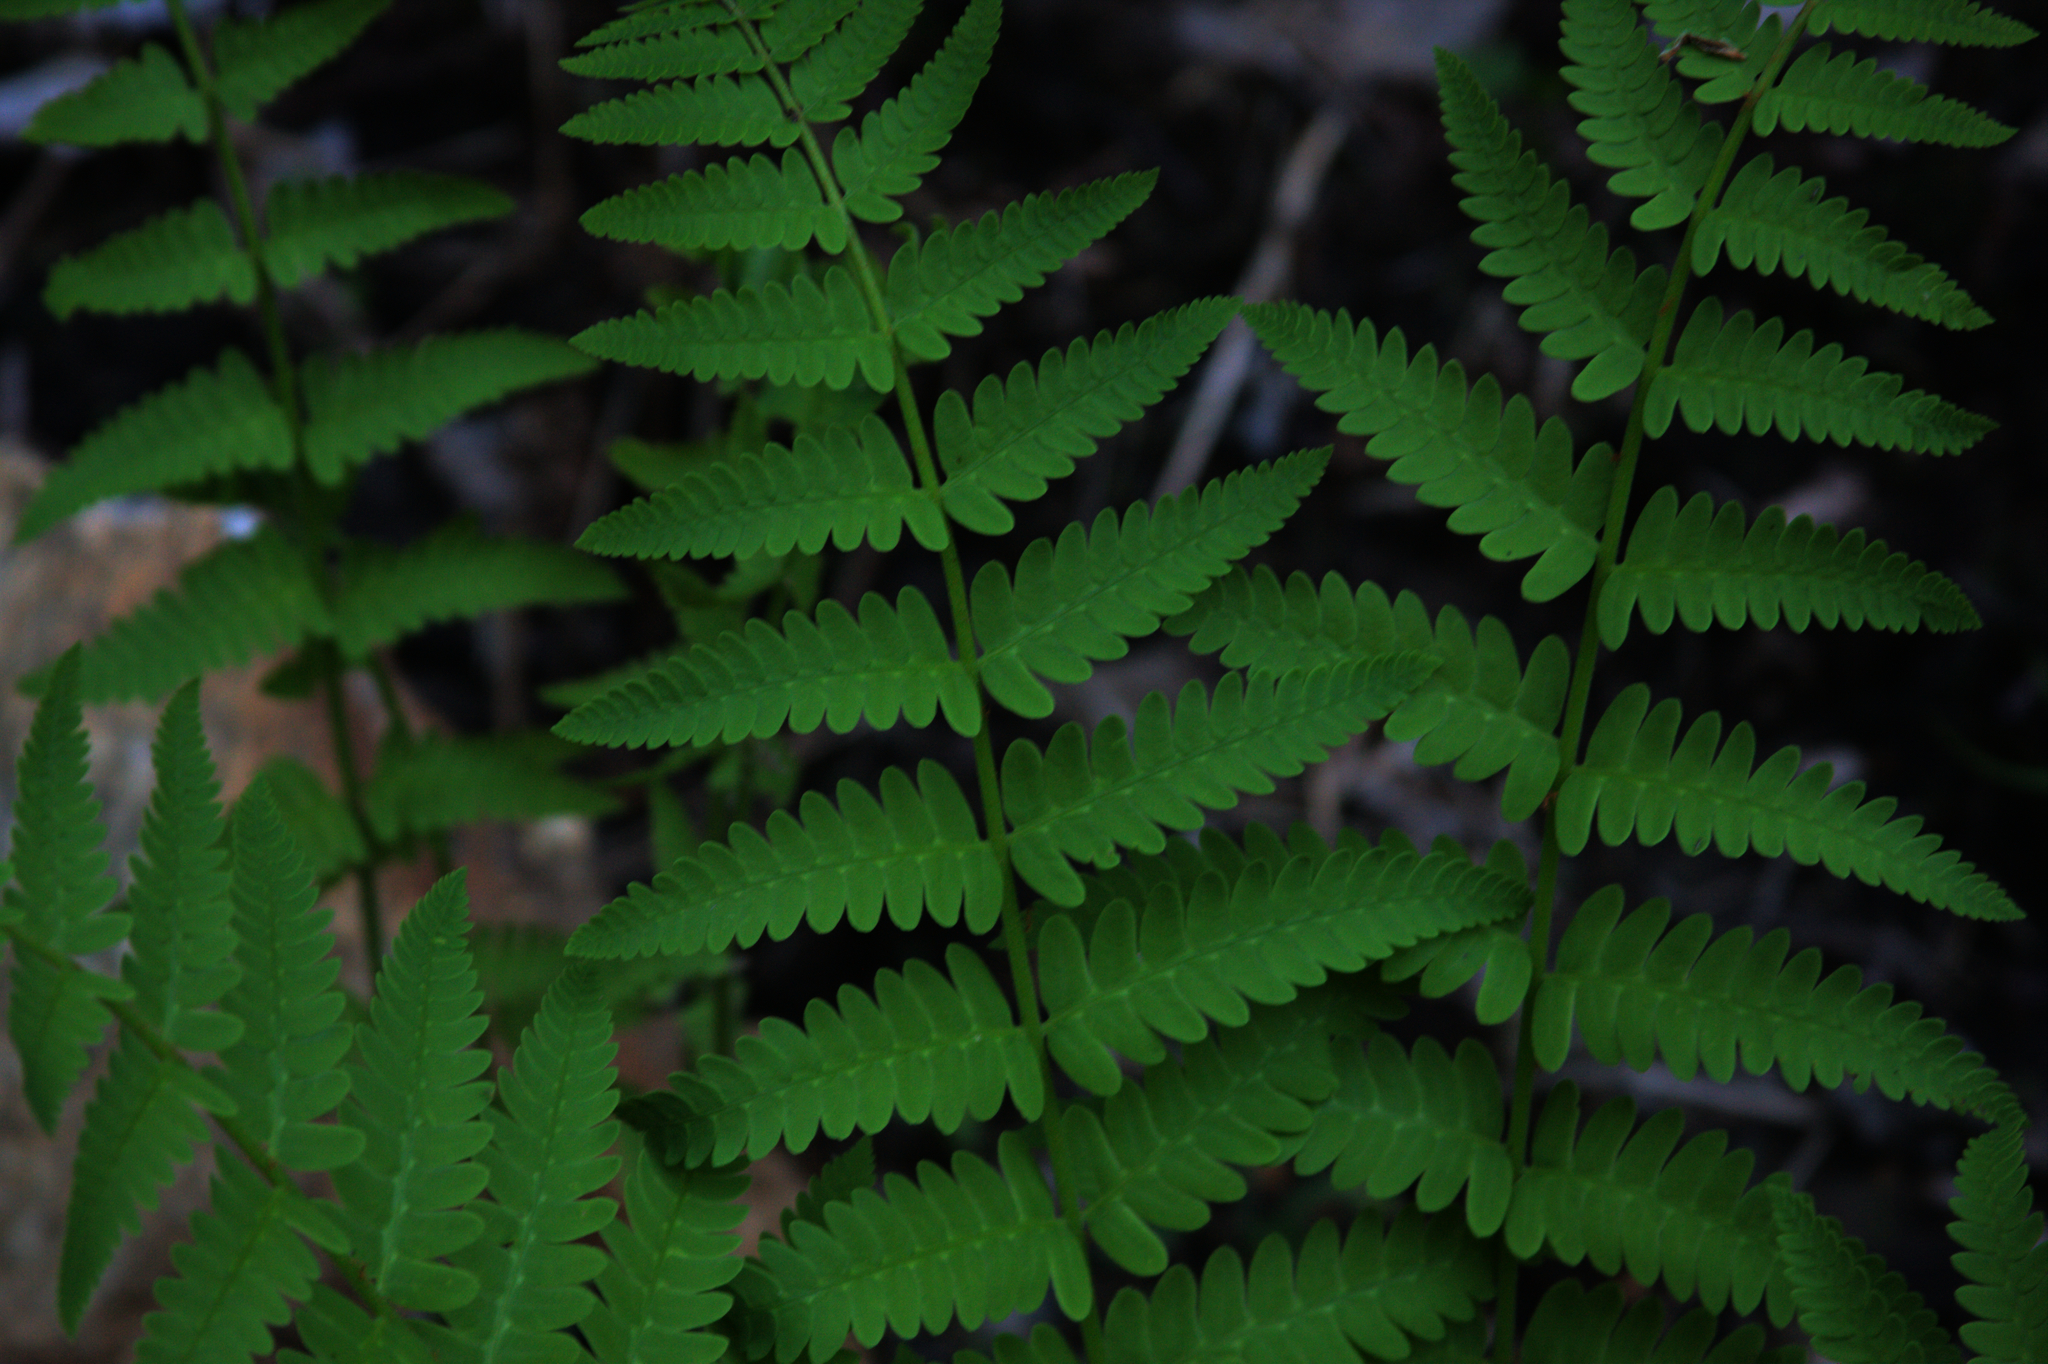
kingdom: Plantae
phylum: Tracheophyta
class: Polypodiopsida
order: Osmundales
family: Osmundaceae
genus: Claytosmunda
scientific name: Claytosmunda claytoniana
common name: Clayton's fern
